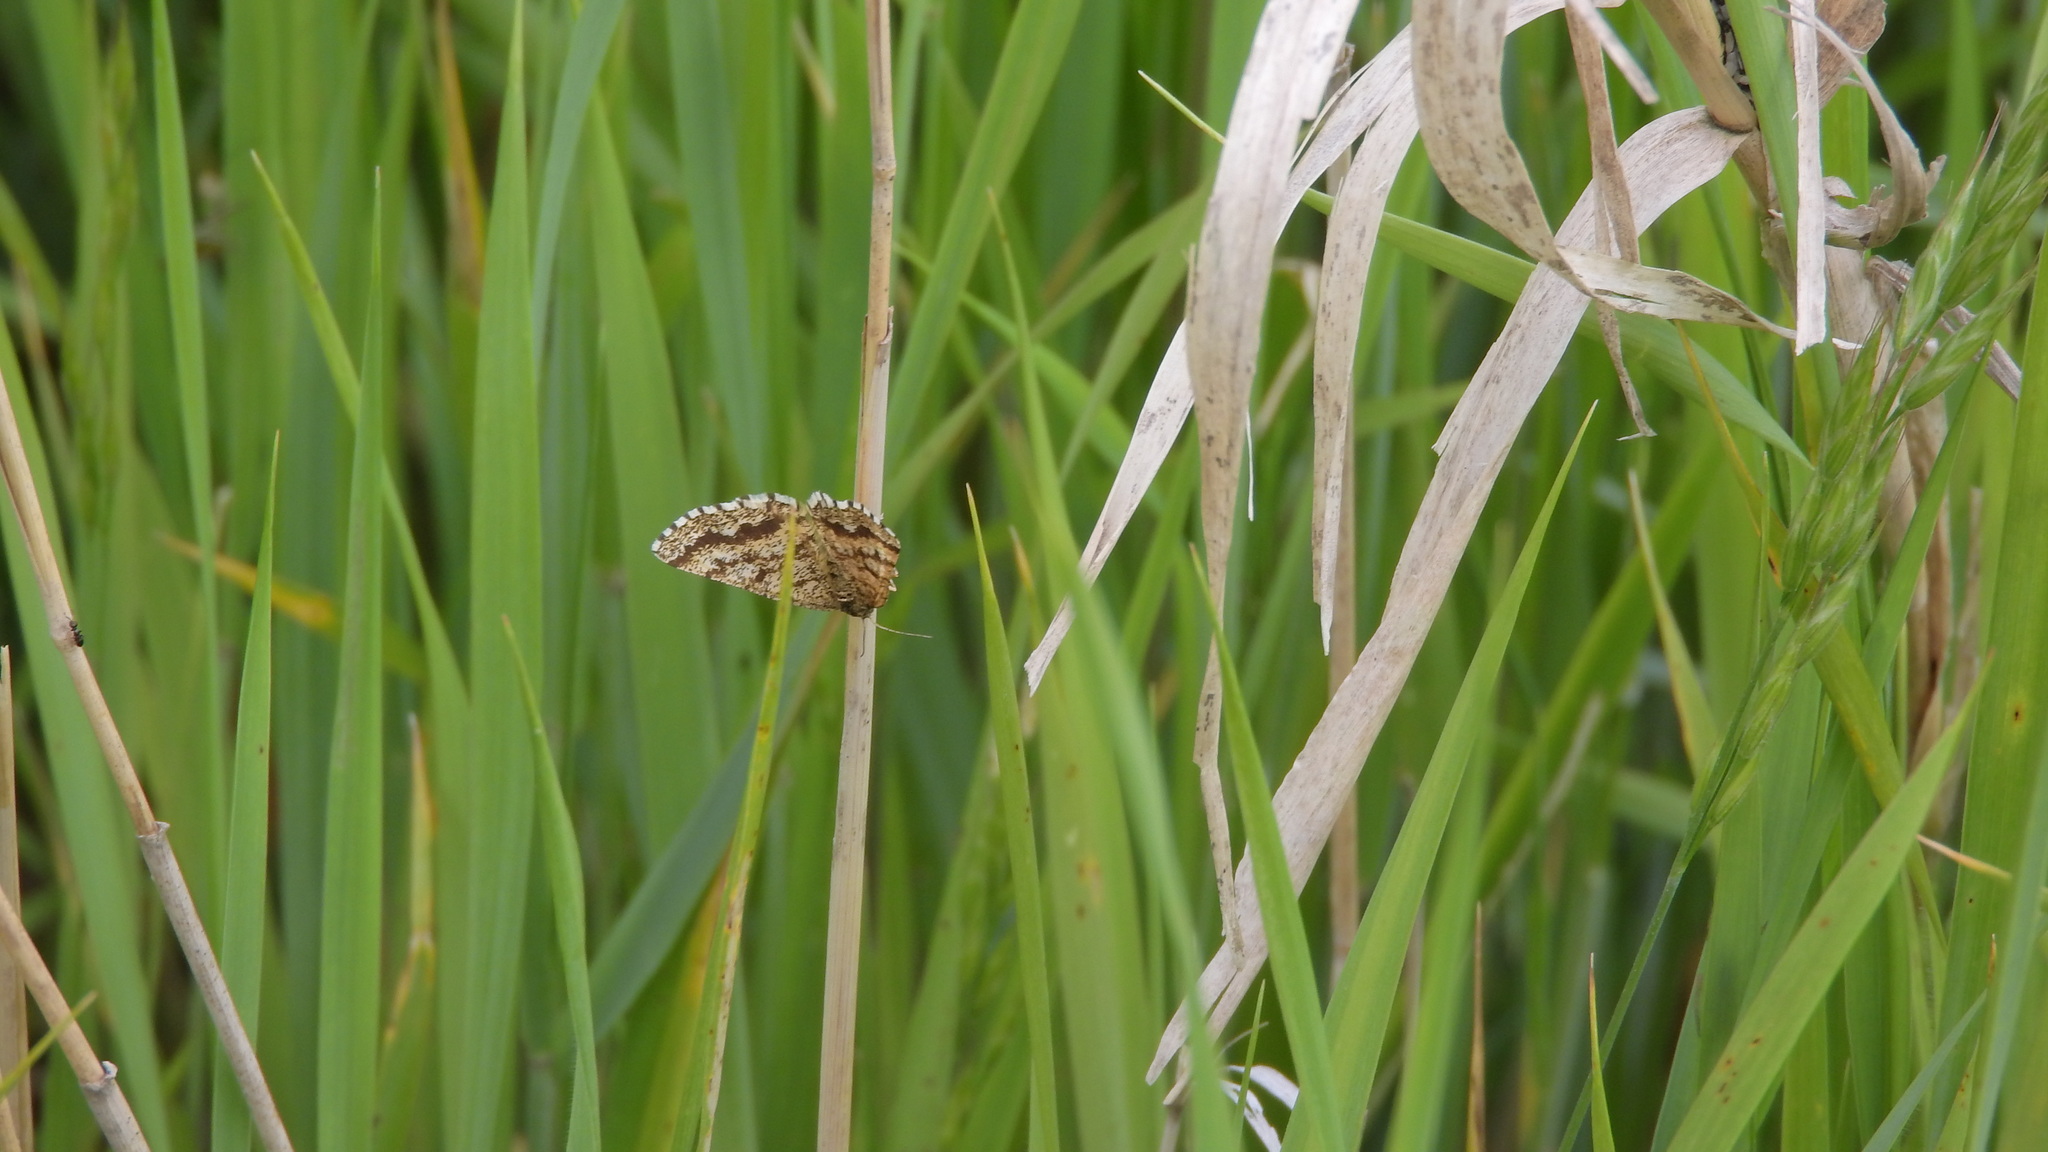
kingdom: Animalia
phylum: Arthropoda
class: Insecta
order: Lepidoptera
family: Geometridae
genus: Ematurga
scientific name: Ematurga atomaria
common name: Common heath
